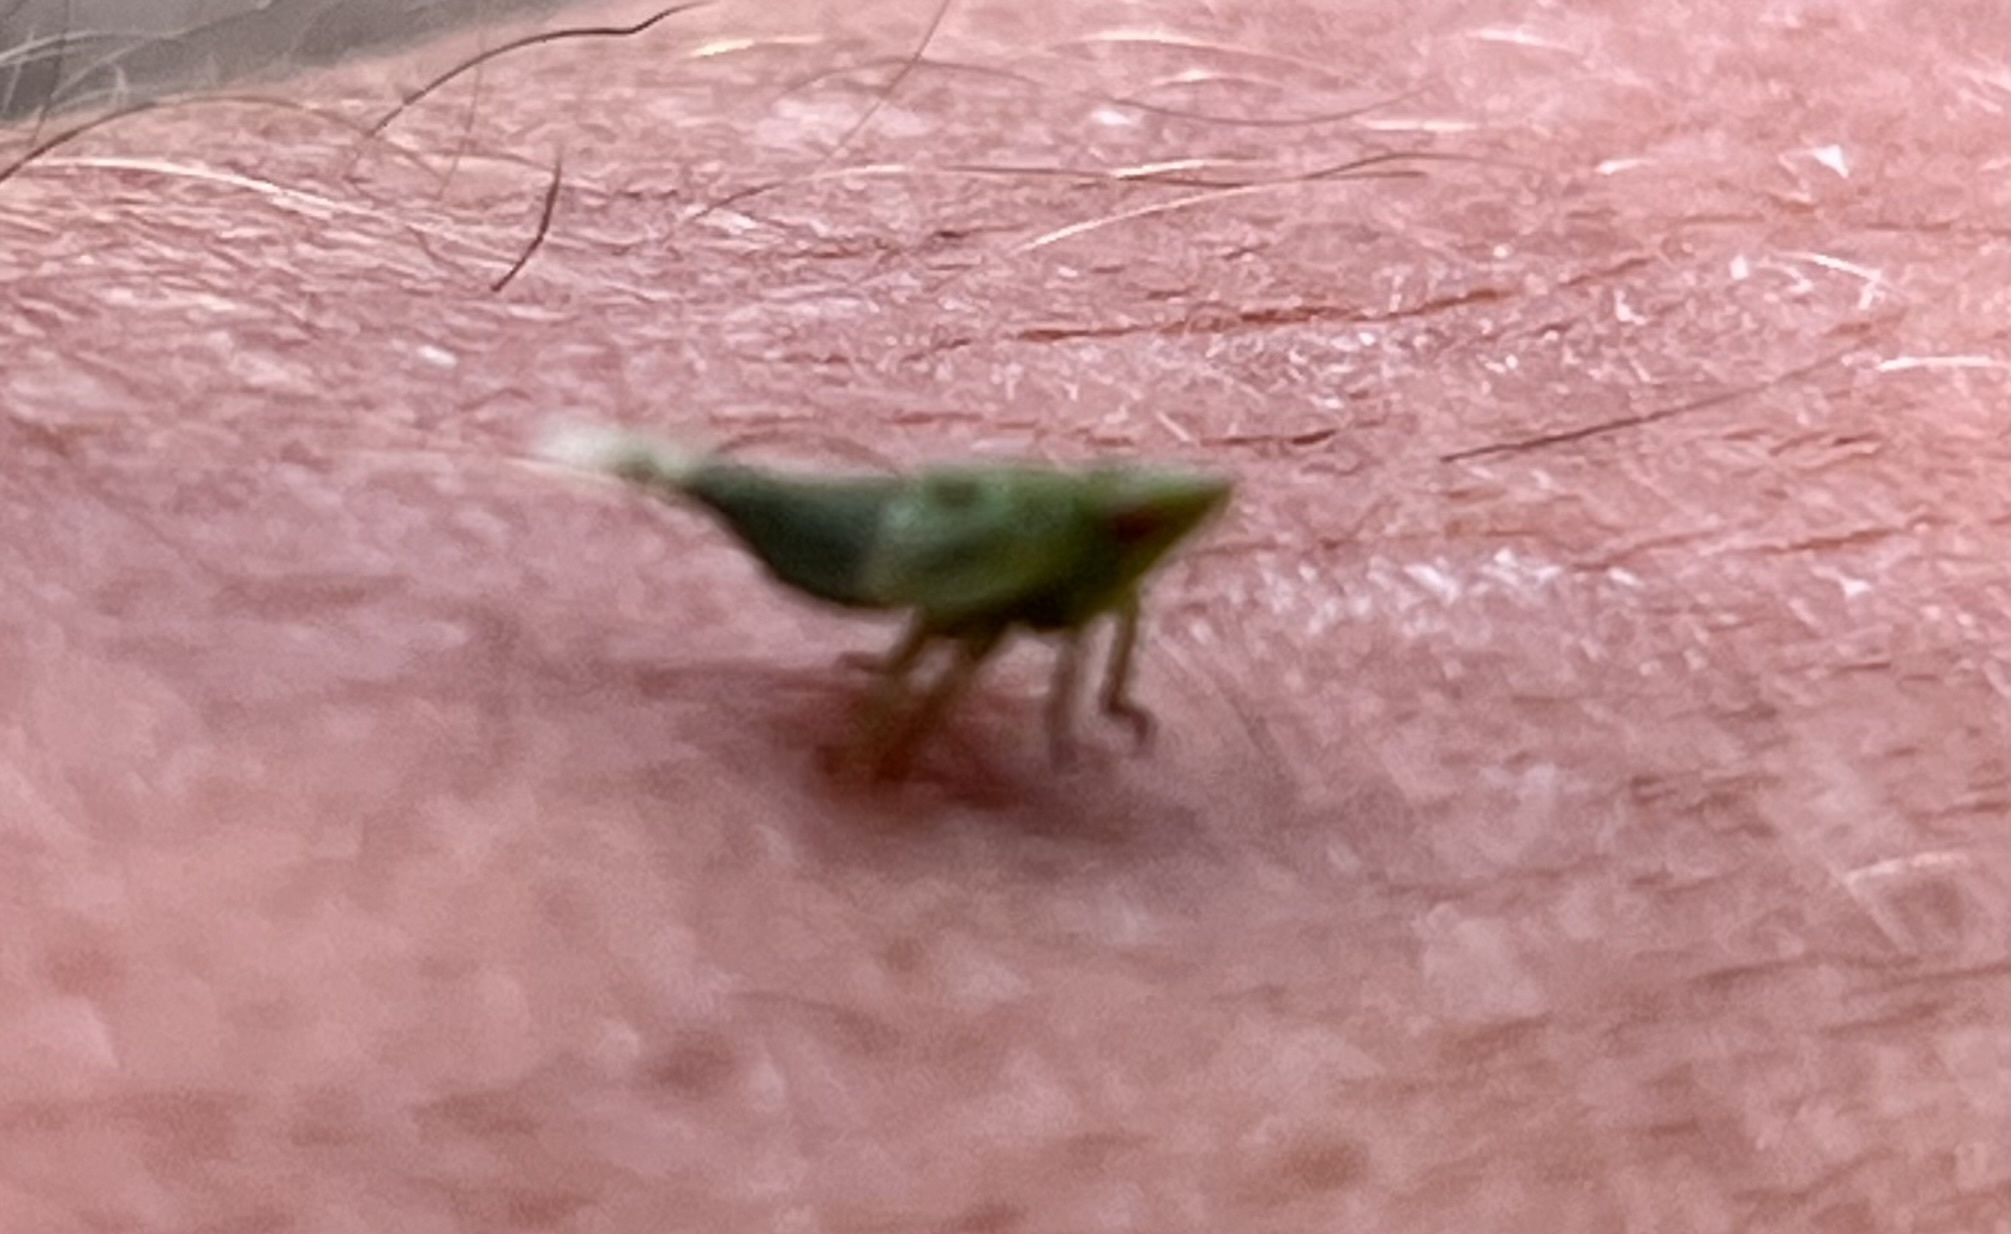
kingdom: Animalia
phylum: Arthropoda
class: Insecta
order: Hemiptera
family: Issidae
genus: Fowlerium
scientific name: Fowlerium acutum
